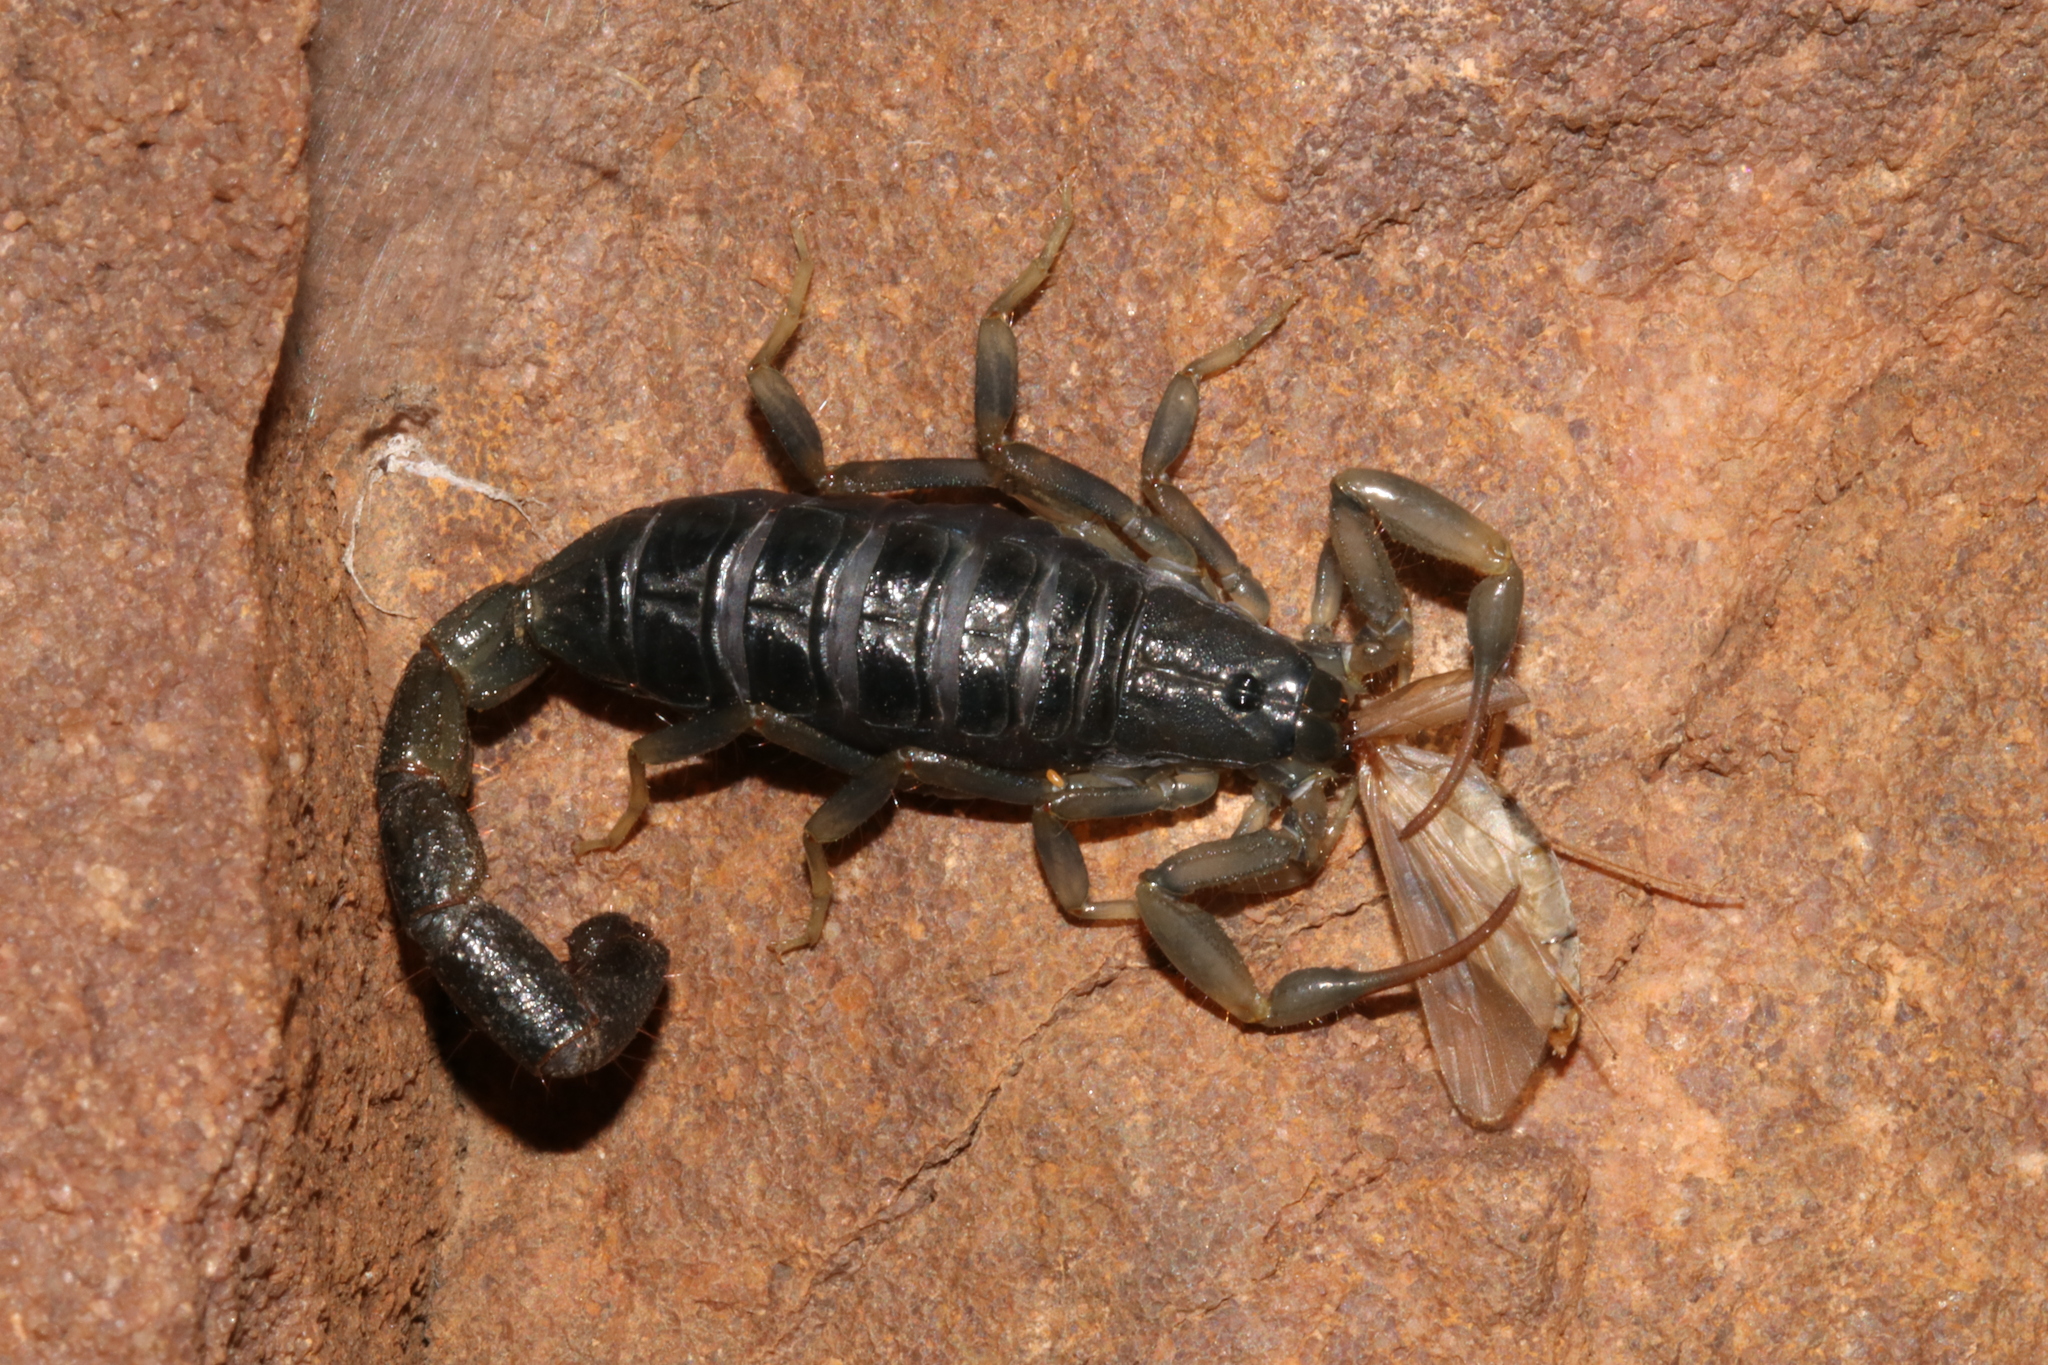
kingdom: Animalia
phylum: Arthropoda
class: Arachnida
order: Scorpiones
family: Buthidae
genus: Uroplectes
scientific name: Uroplectes flavoviridis
